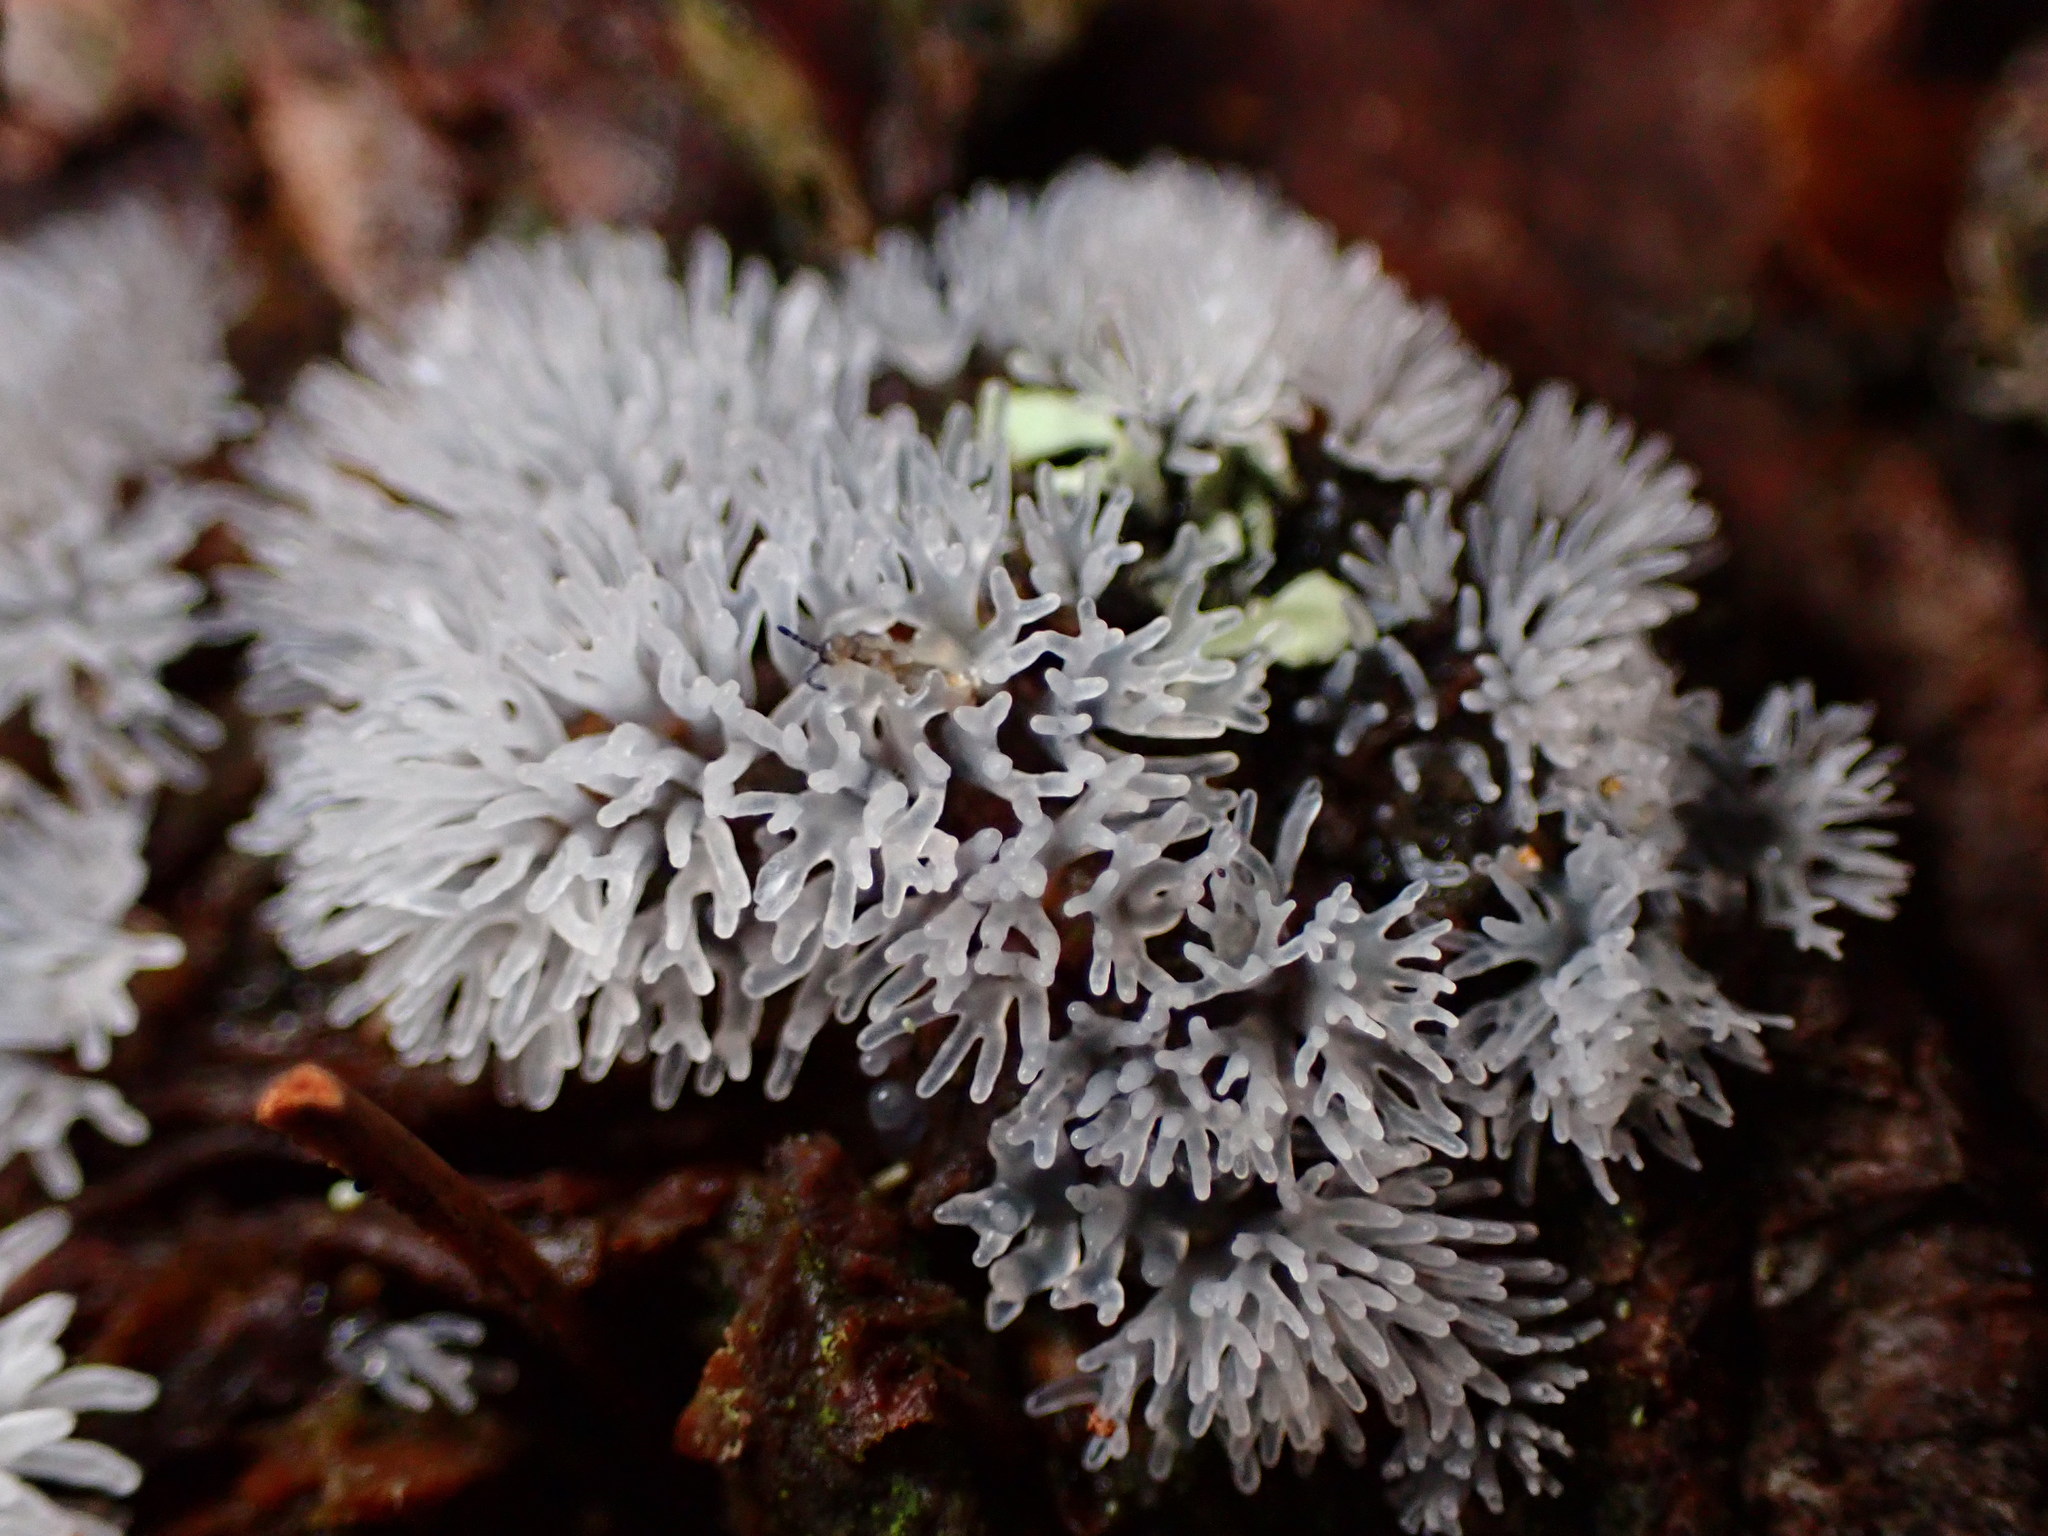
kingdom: Protozoa
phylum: Mycetozoa
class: Protosteliomycetes
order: Ceratiomyxales
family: Ceratiomyxaceae
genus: Ceratiomyxa
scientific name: Ceratiomyxa fruticulosa
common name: Honeycomb coral slime mold
